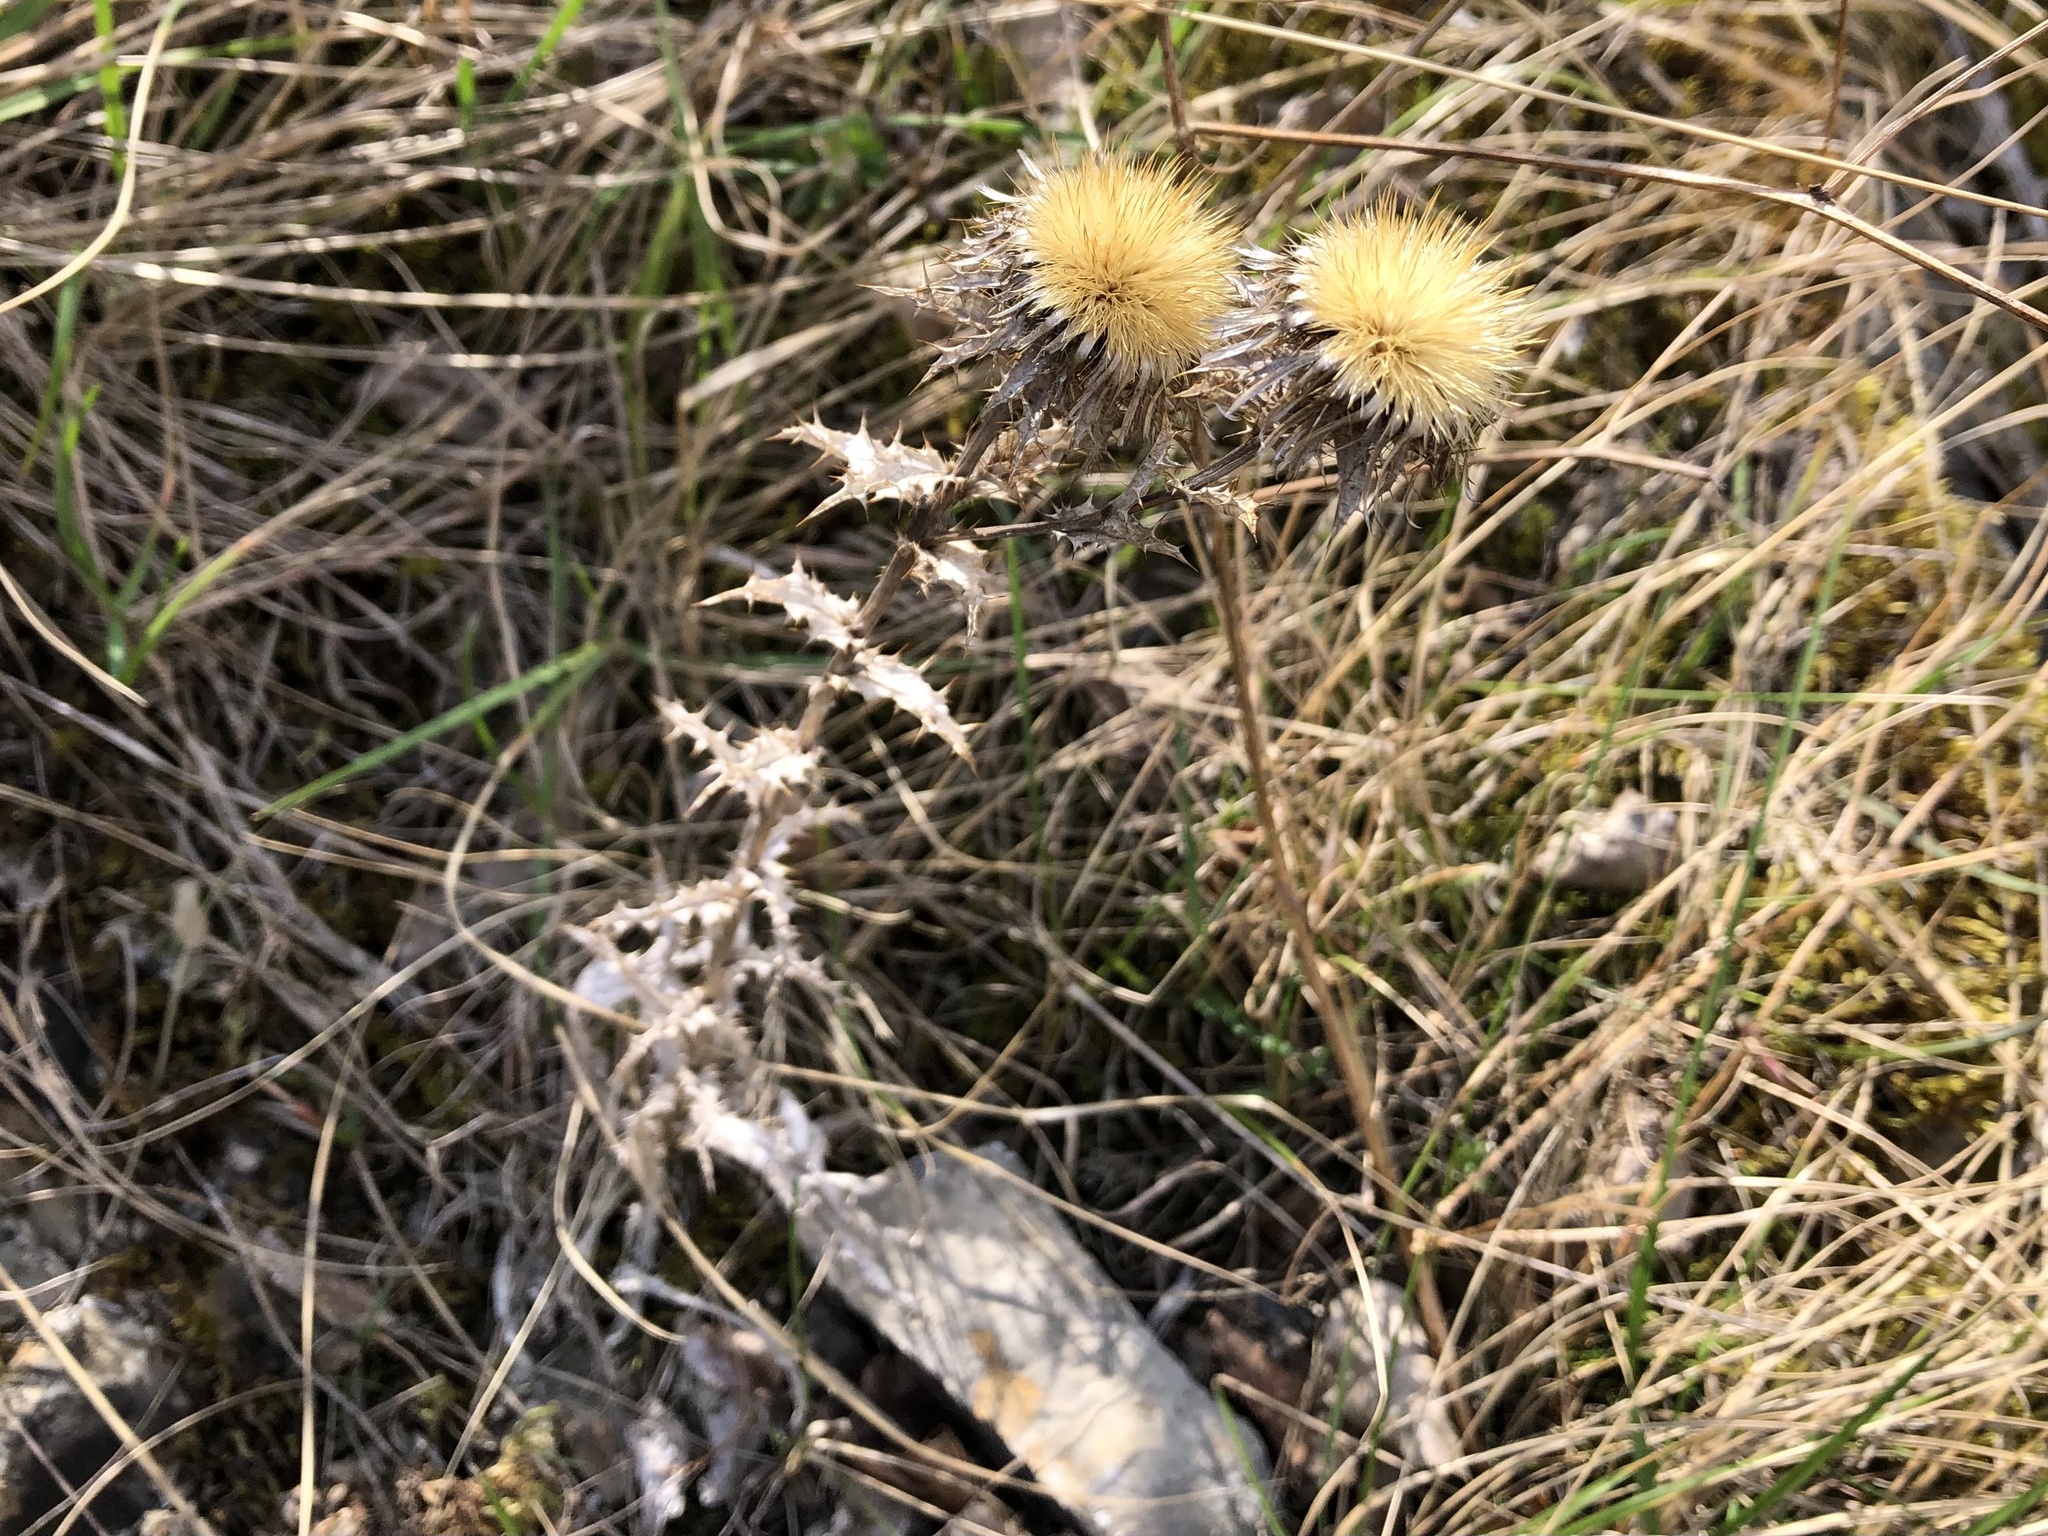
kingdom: Plantae
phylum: Tracheophyta
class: Magnoliopsida
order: Asterales
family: Asteraceae
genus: Carlina
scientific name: Carlina vulgaris
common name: Carline thistle
